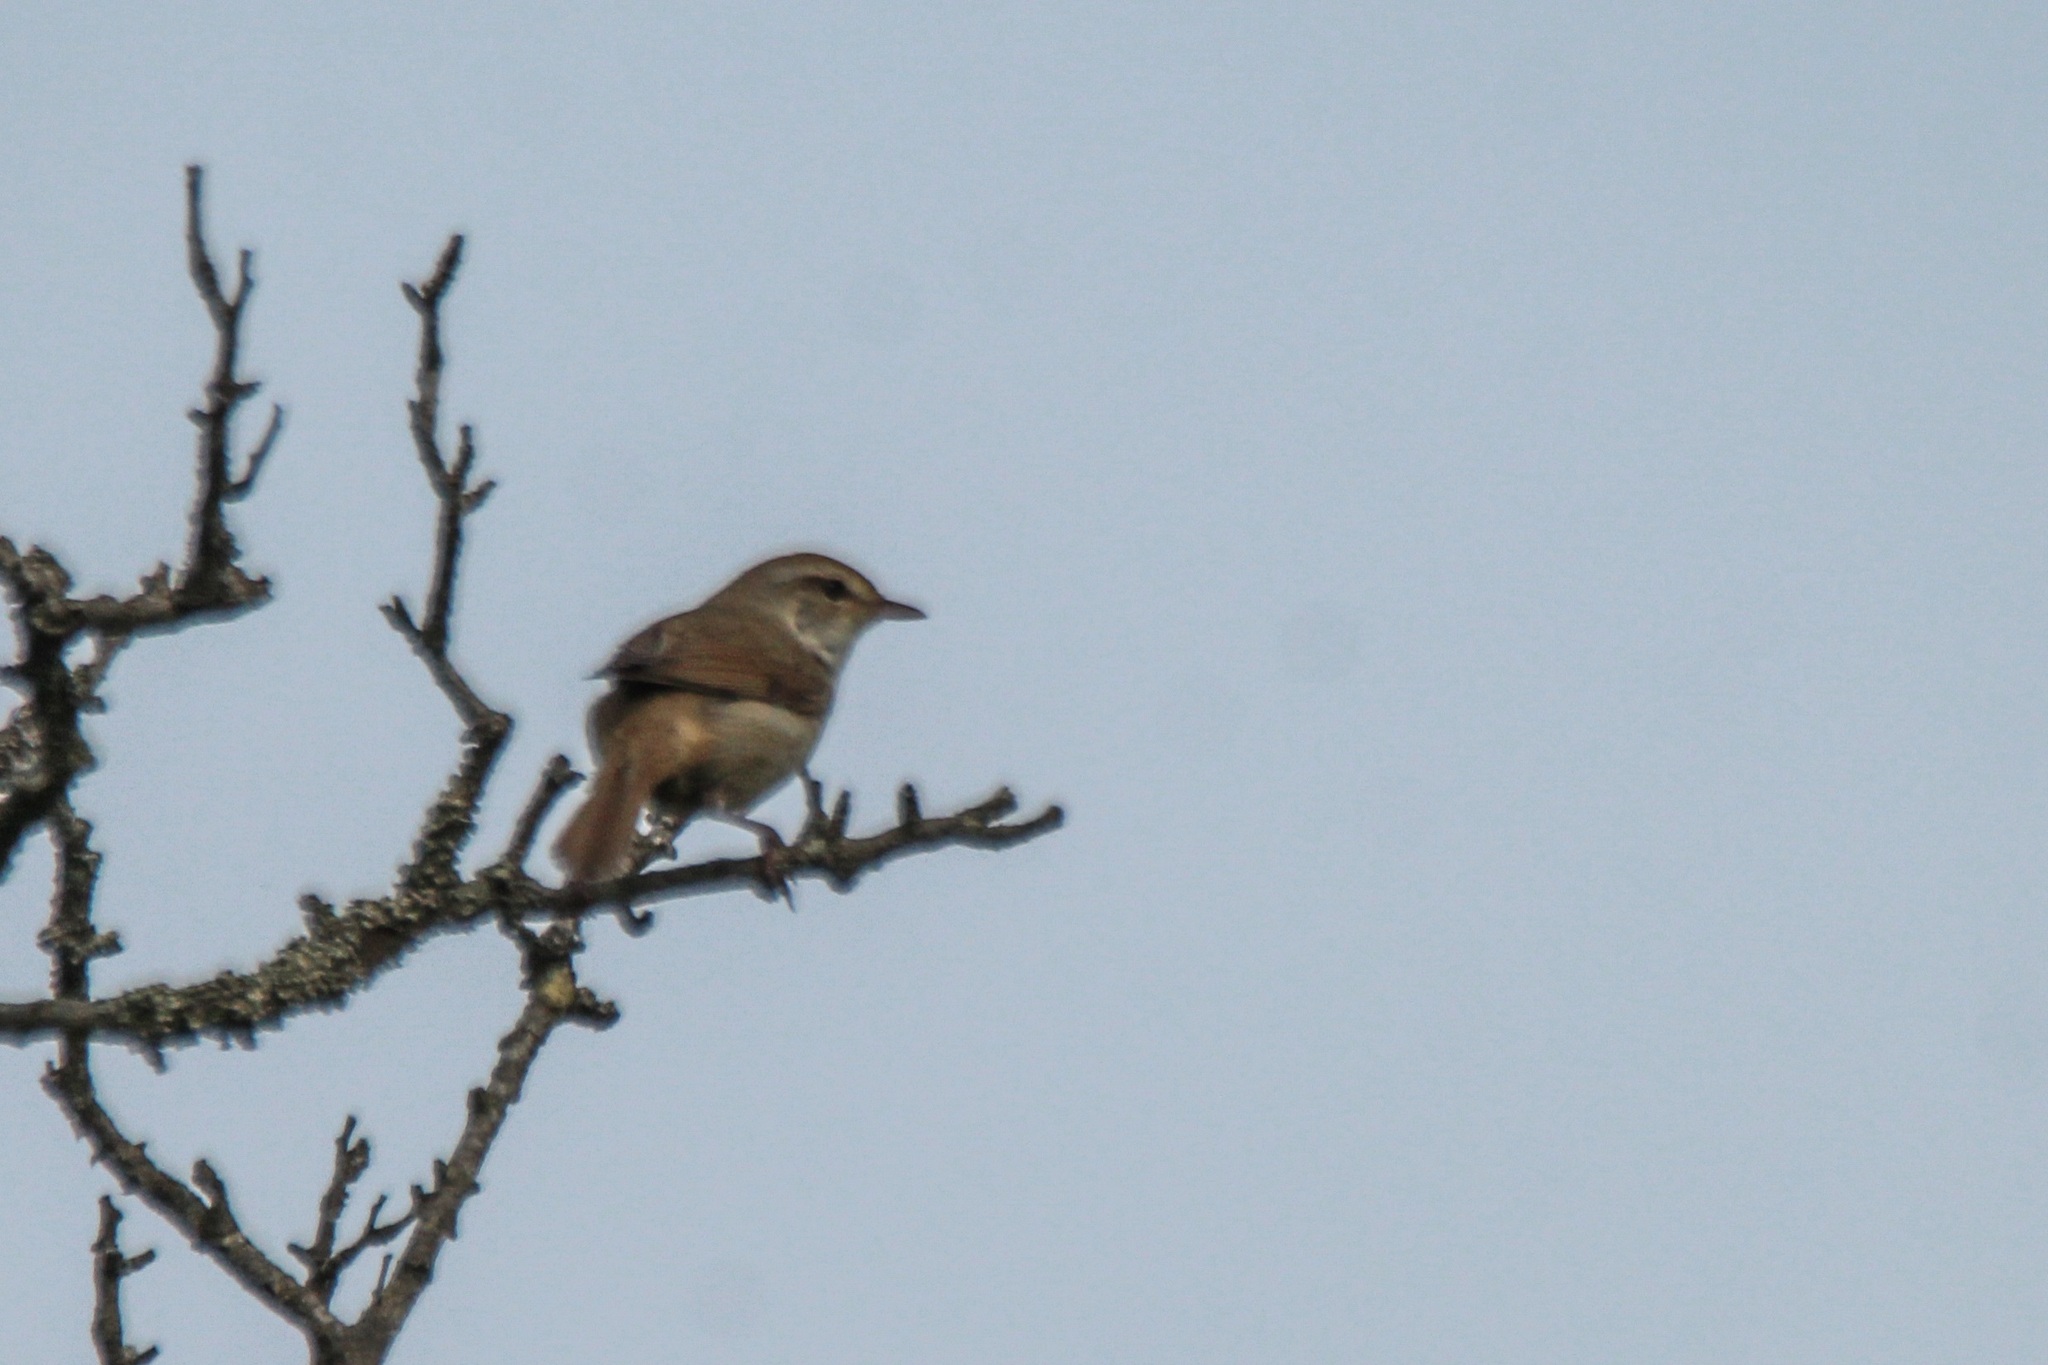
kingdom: Animalia
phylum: Chordata
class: Aves
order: Passeriformes
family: Cettiidae
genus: Horornis
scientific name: Horornis diphone
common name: Japanese bush warbler
